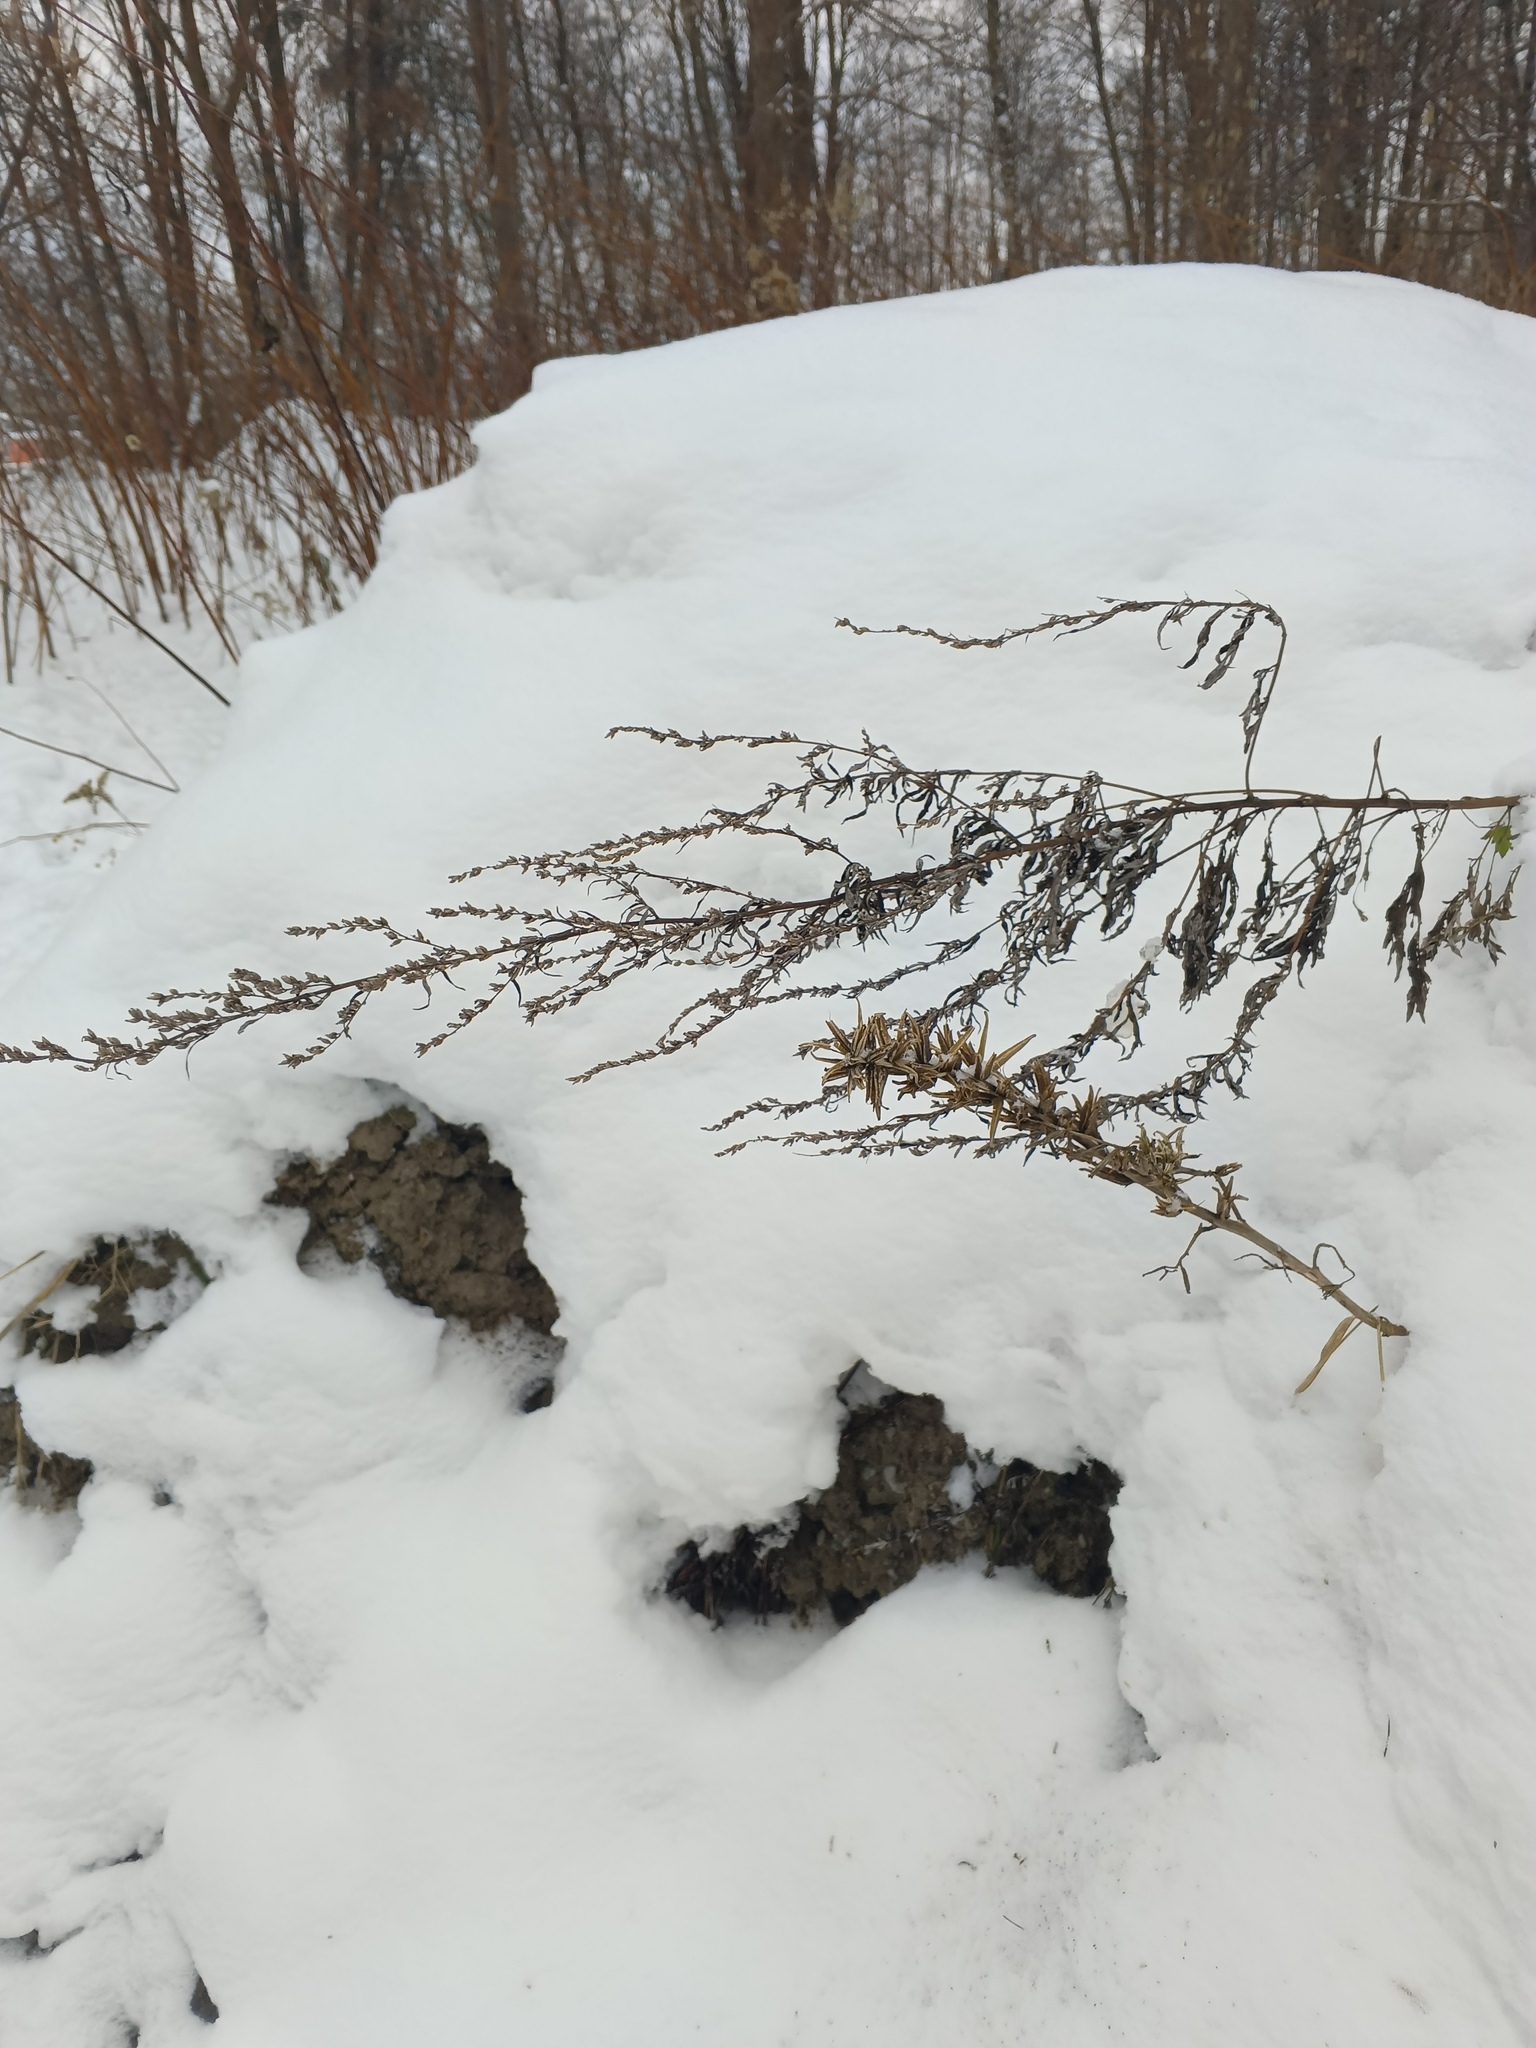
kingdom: Plantae
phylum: Tracheophyta
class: Magnoliopsida
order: Asterales
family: Asteraceae
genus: Artemisia
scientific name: Artemisia vulgaris
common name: Mugwort
